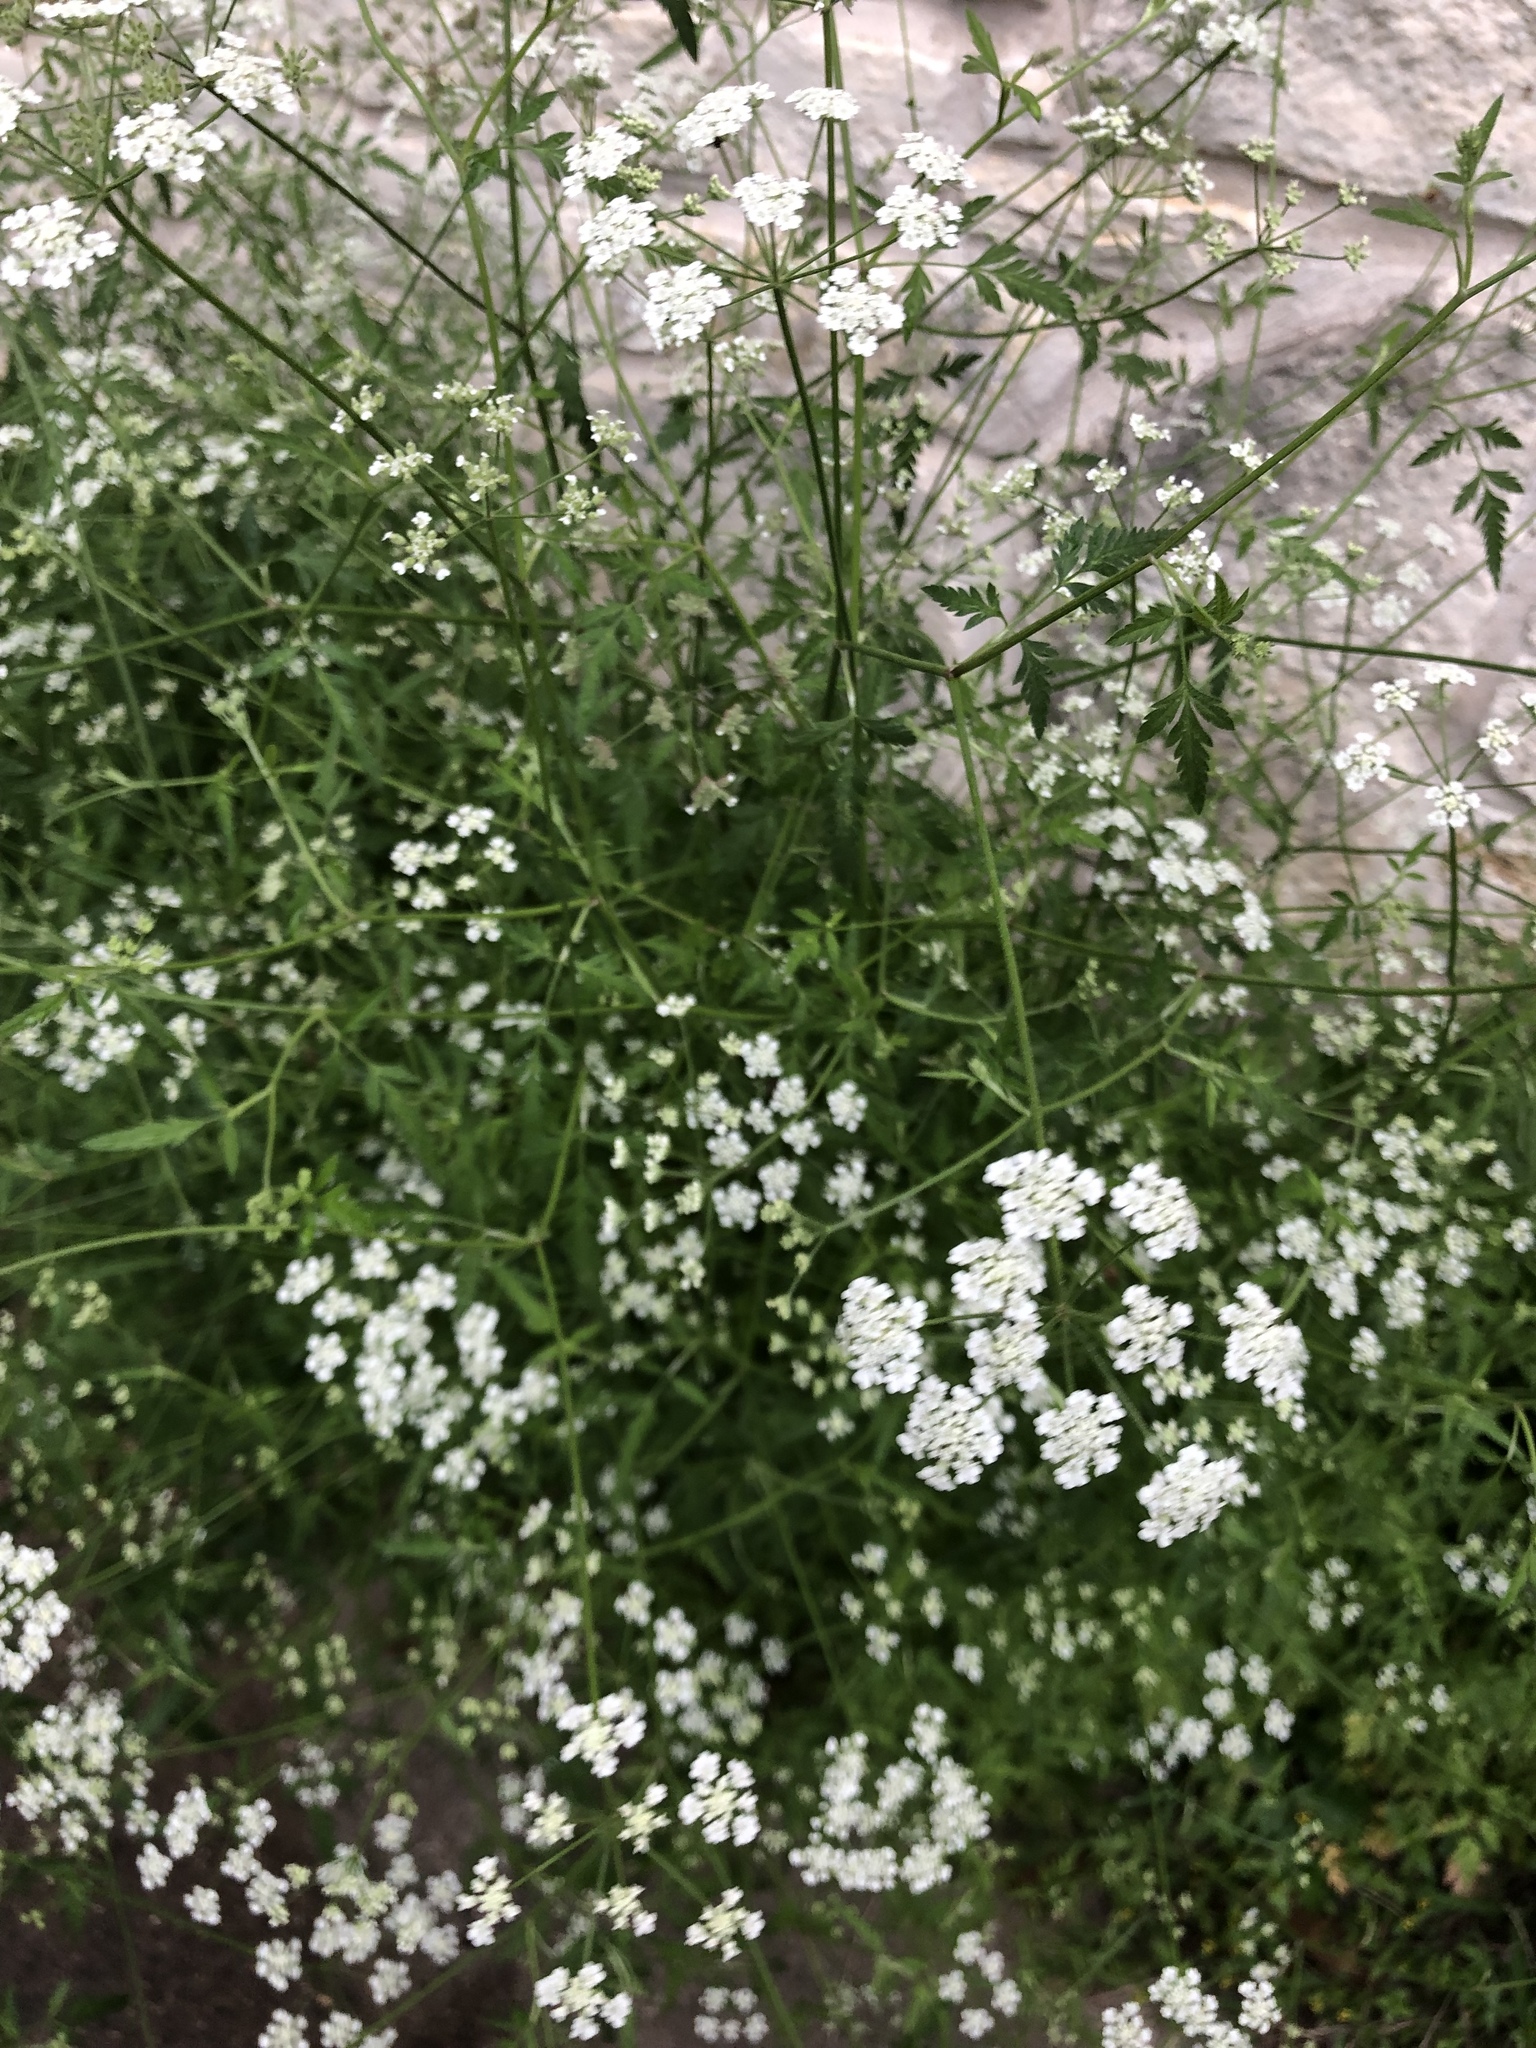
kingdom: Plantae
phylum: Tracheophyta
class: Magnoliopsida
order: Apiales
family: Apiaceae
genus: Torilis
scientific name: Torilis arvensis
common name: Spreading hedge-parsley
